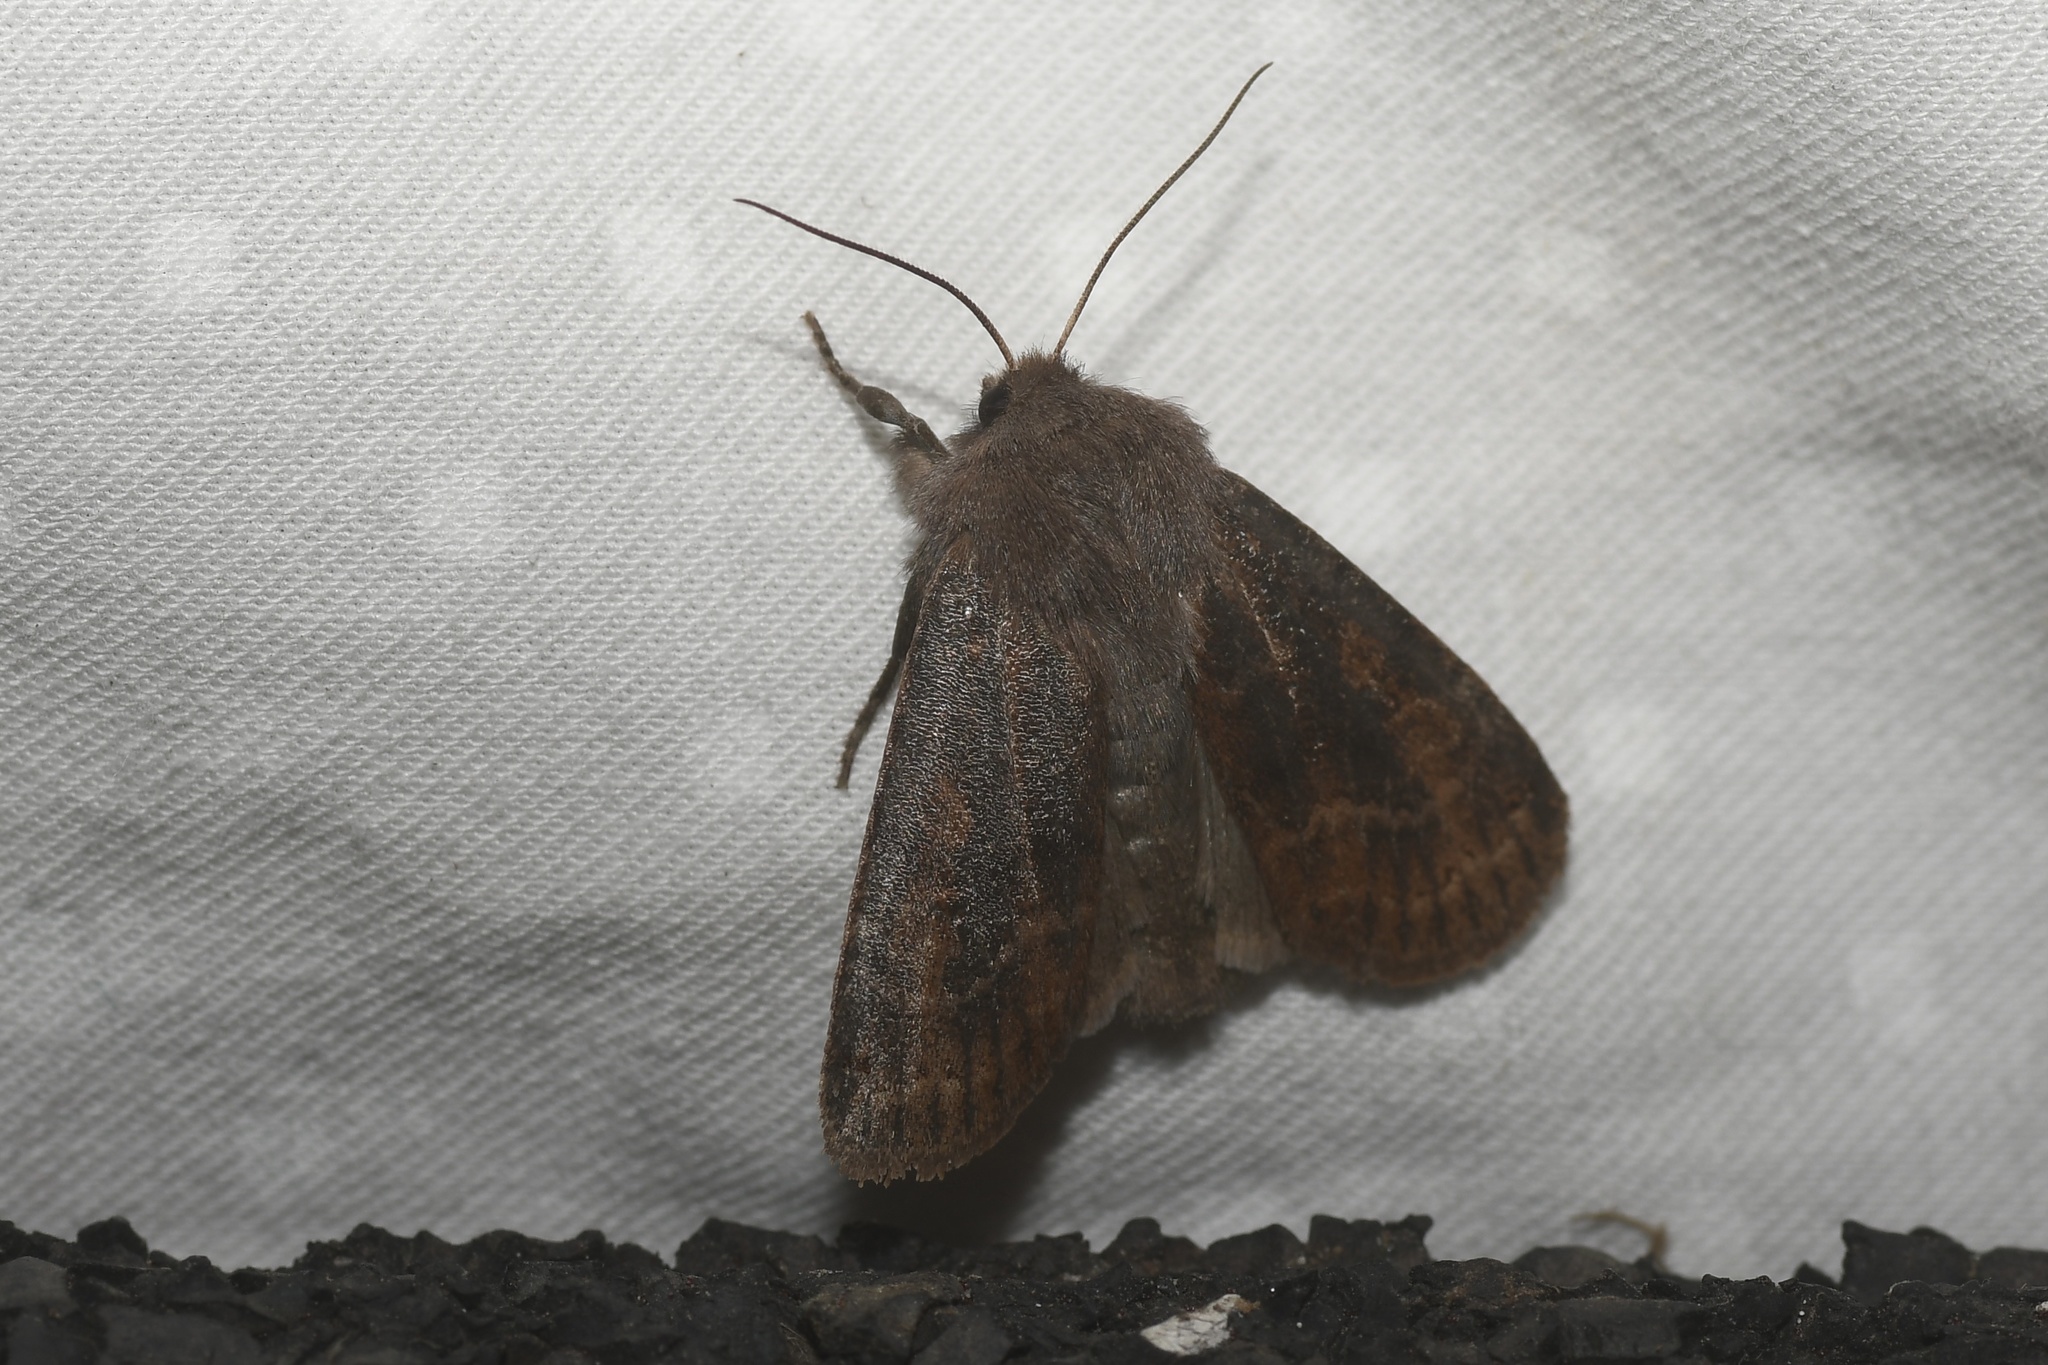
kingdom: Animalia
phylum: Arthropoda
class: Insecta
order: Lepidoptera
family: Noctuidae
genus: Homoglaea
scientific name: Homoglaea hircina
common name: Goat sallow
